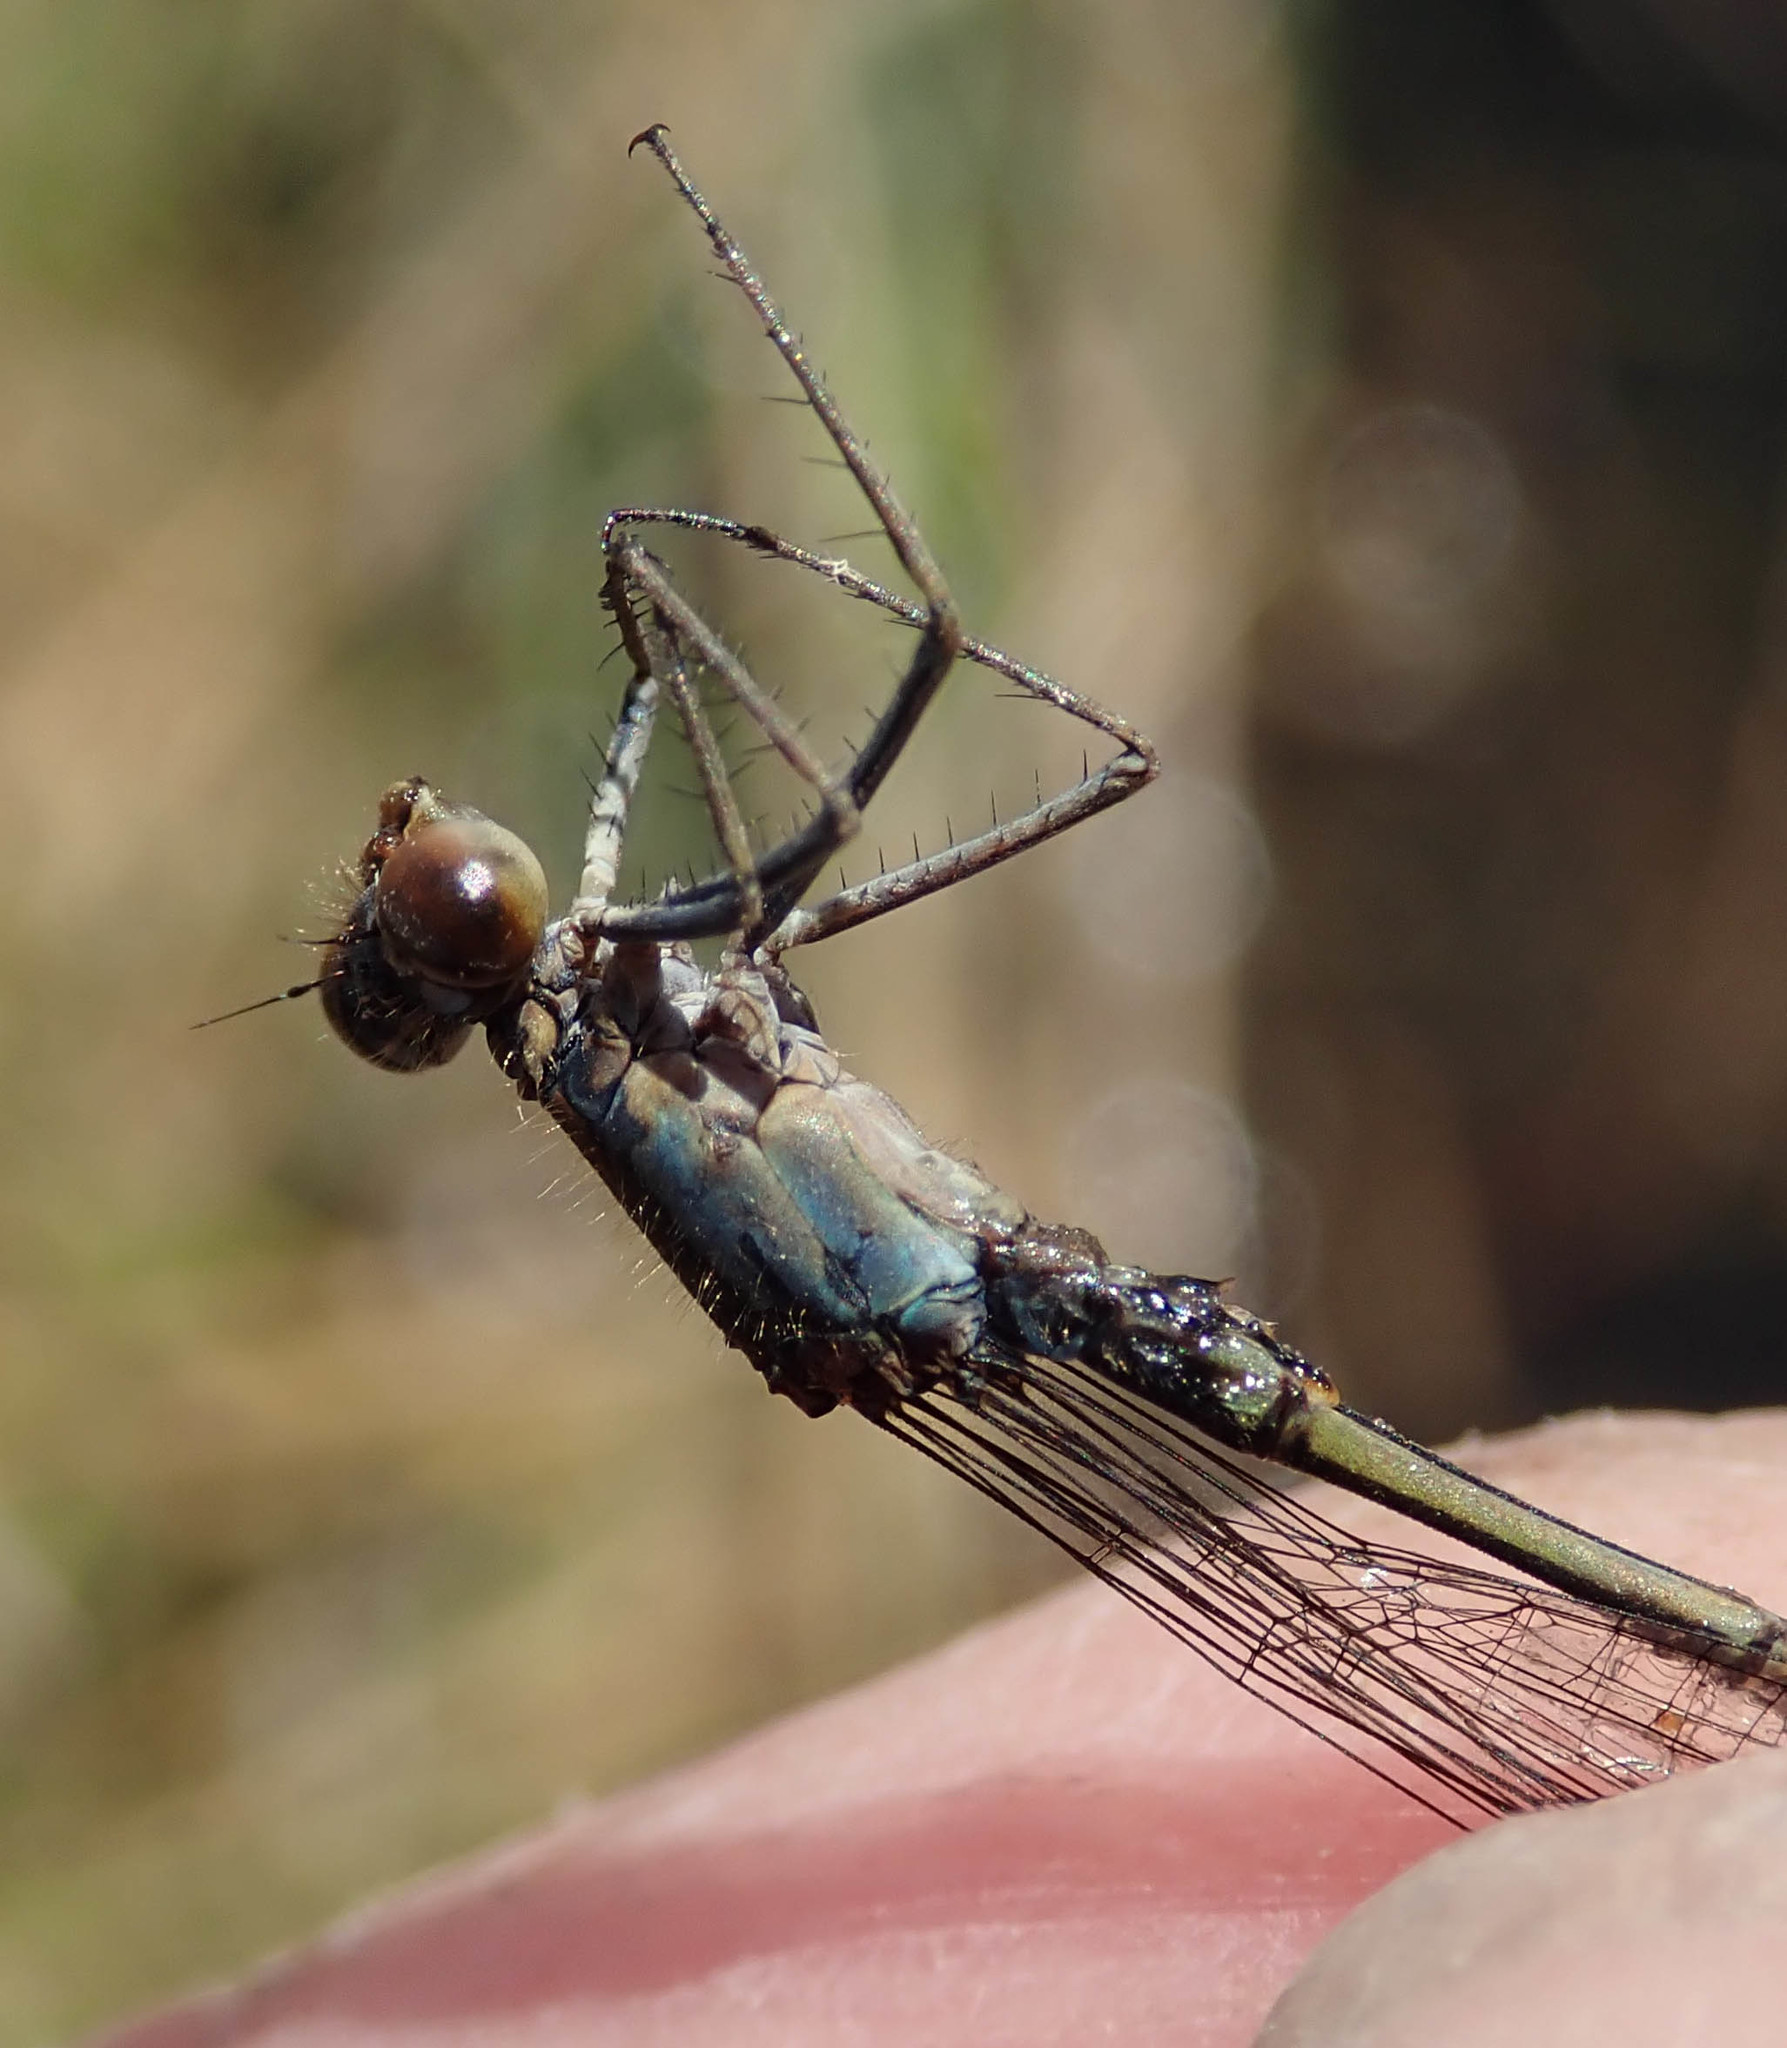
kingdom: Animalia
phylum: Arthropoda
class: Insecta
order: Odonata
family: Coenagrionidae
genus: Pseudagrion
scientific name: Pseudagrion sudanicum
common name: Blue-sided sprite
